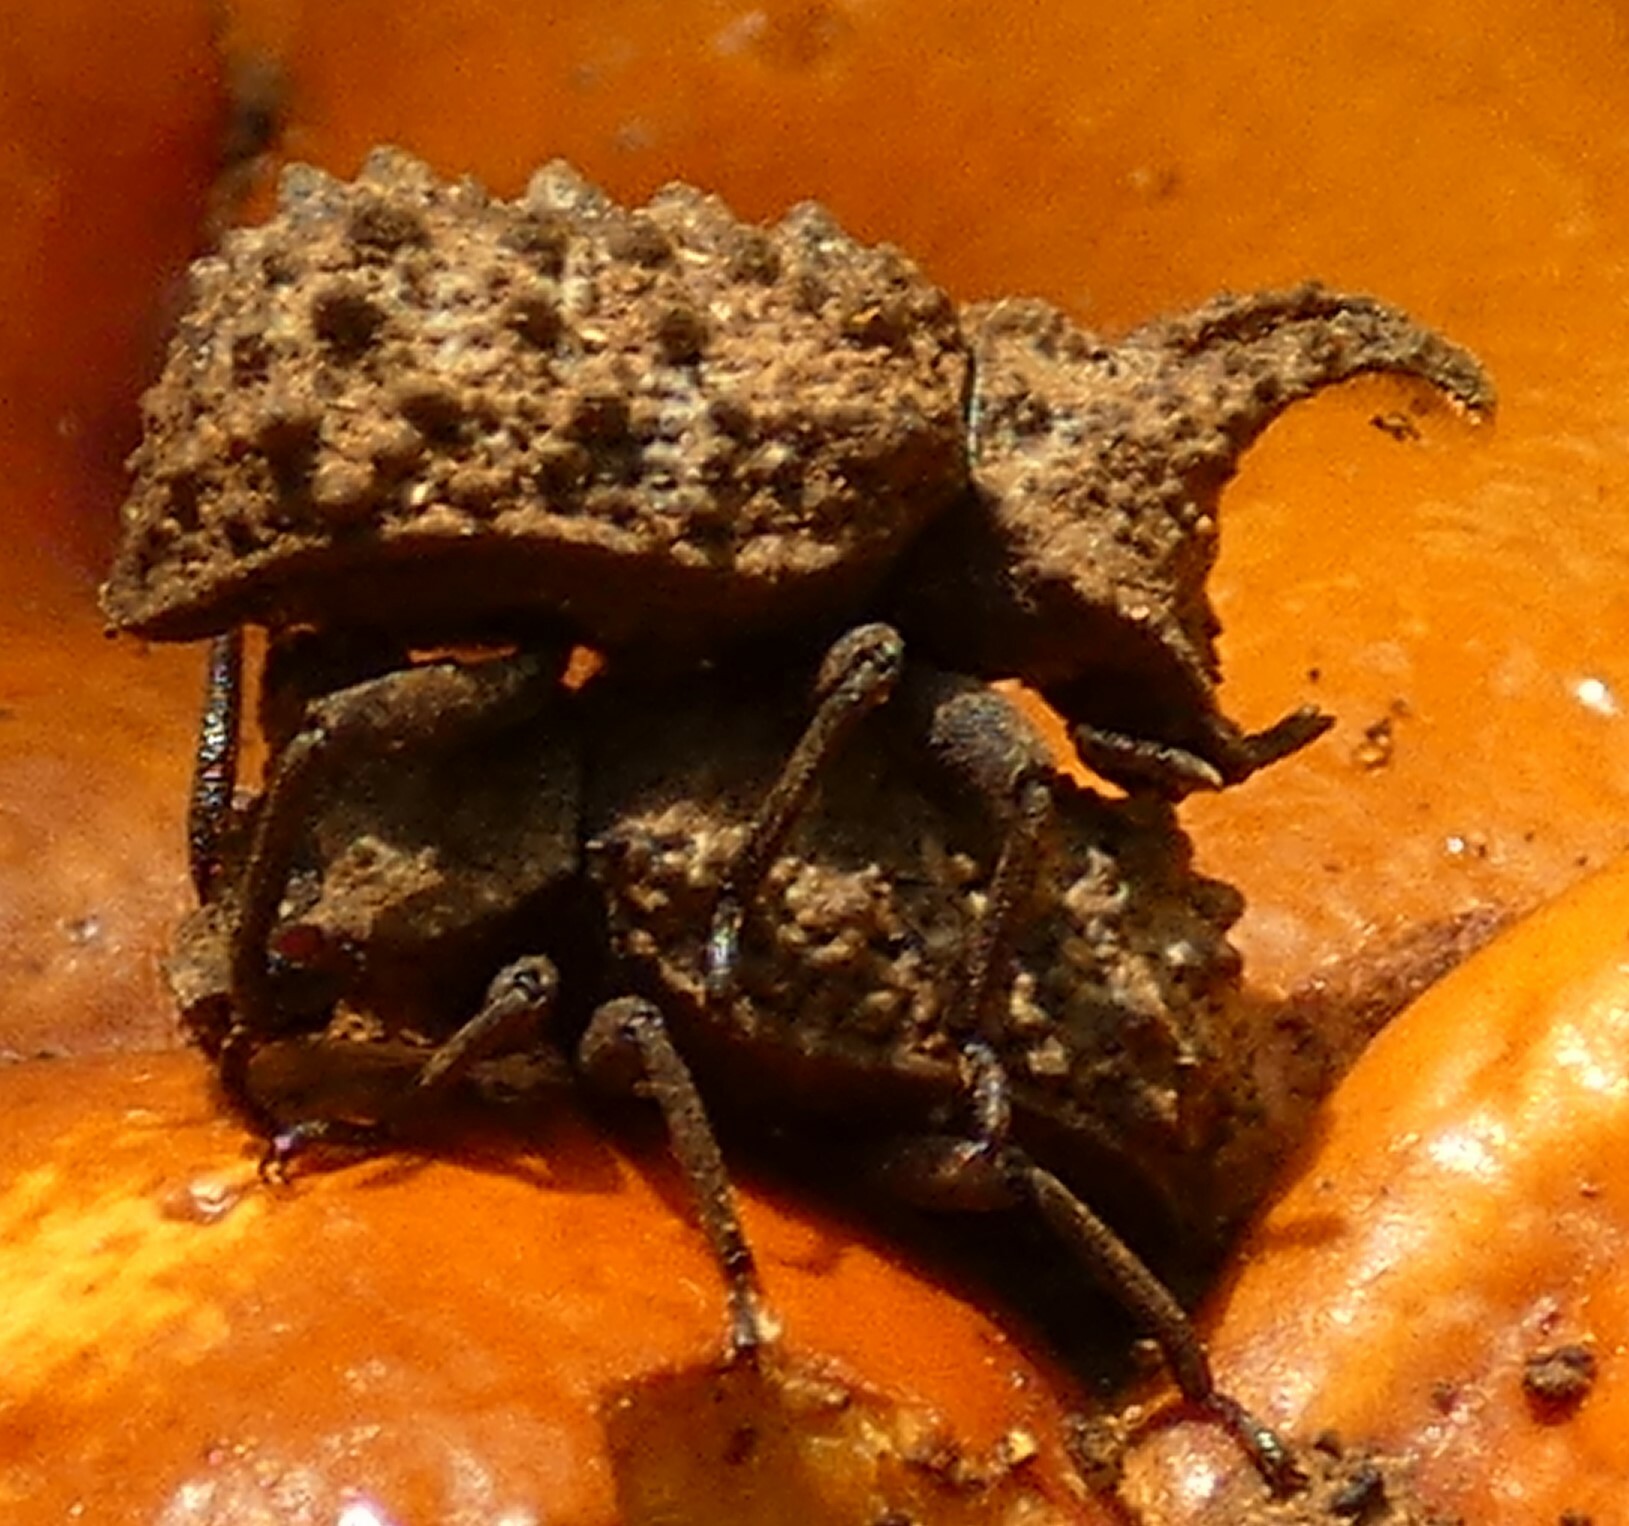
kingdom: Animalia
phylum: Arthropoda
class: Insecta
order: Coleoptera
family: Tenebrionidae
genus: Gnatocerus
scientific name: Gnatocerus cornutus
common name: Broad-horned flour beetle
